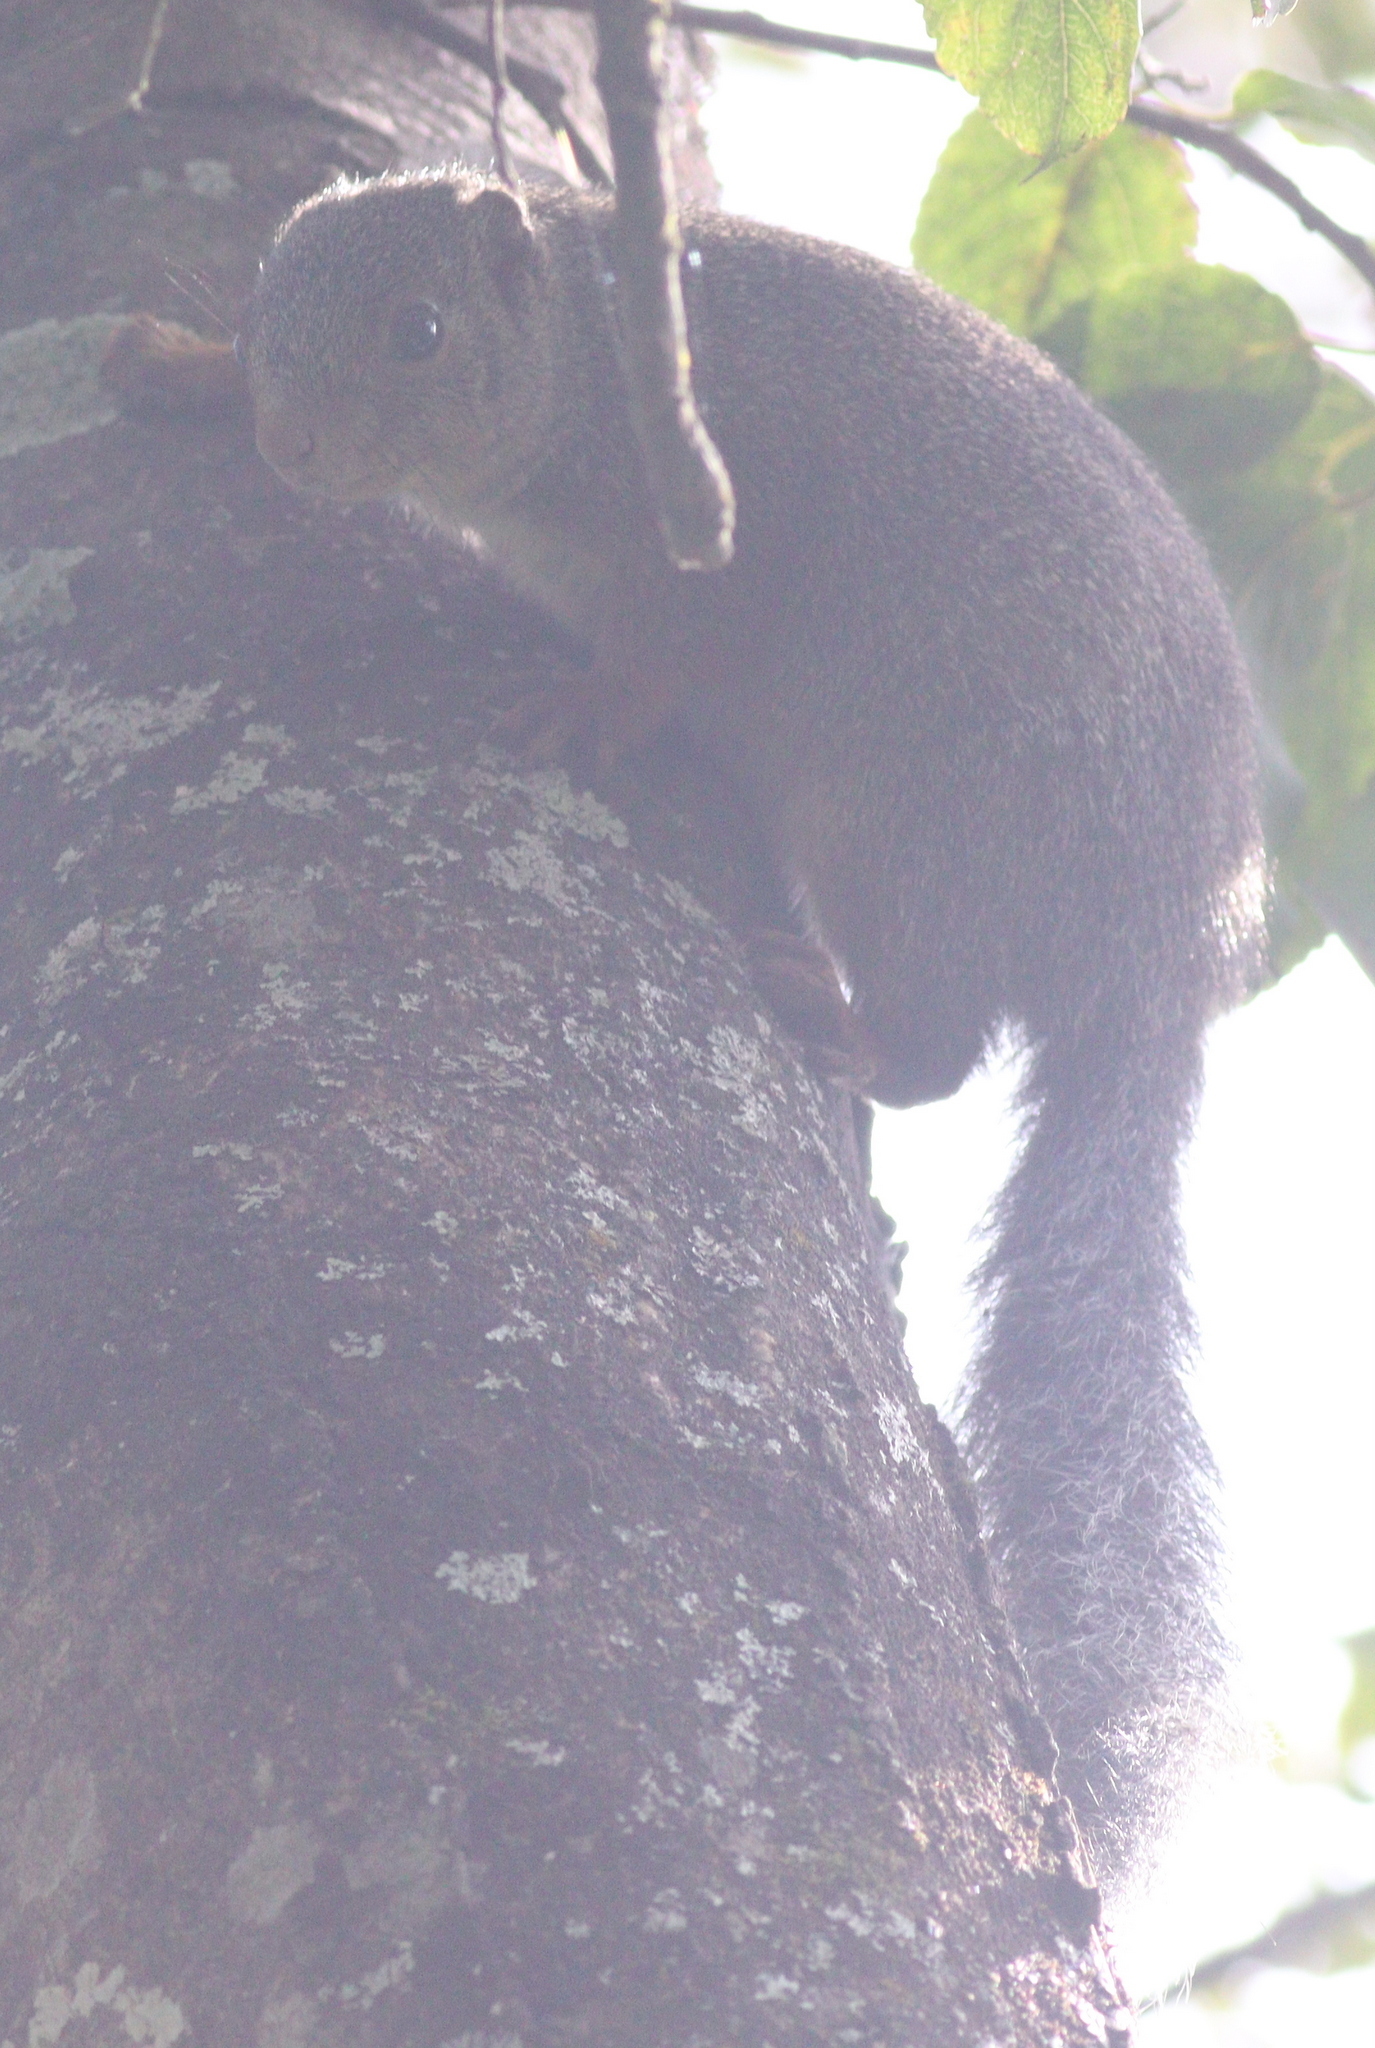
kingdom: Animalia
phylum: Chordata
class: Mammalia
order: Rodentia
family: Sciuridae
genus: Protoxerus
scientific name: Protoxerus stangeri
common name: Forest giant squirrel
